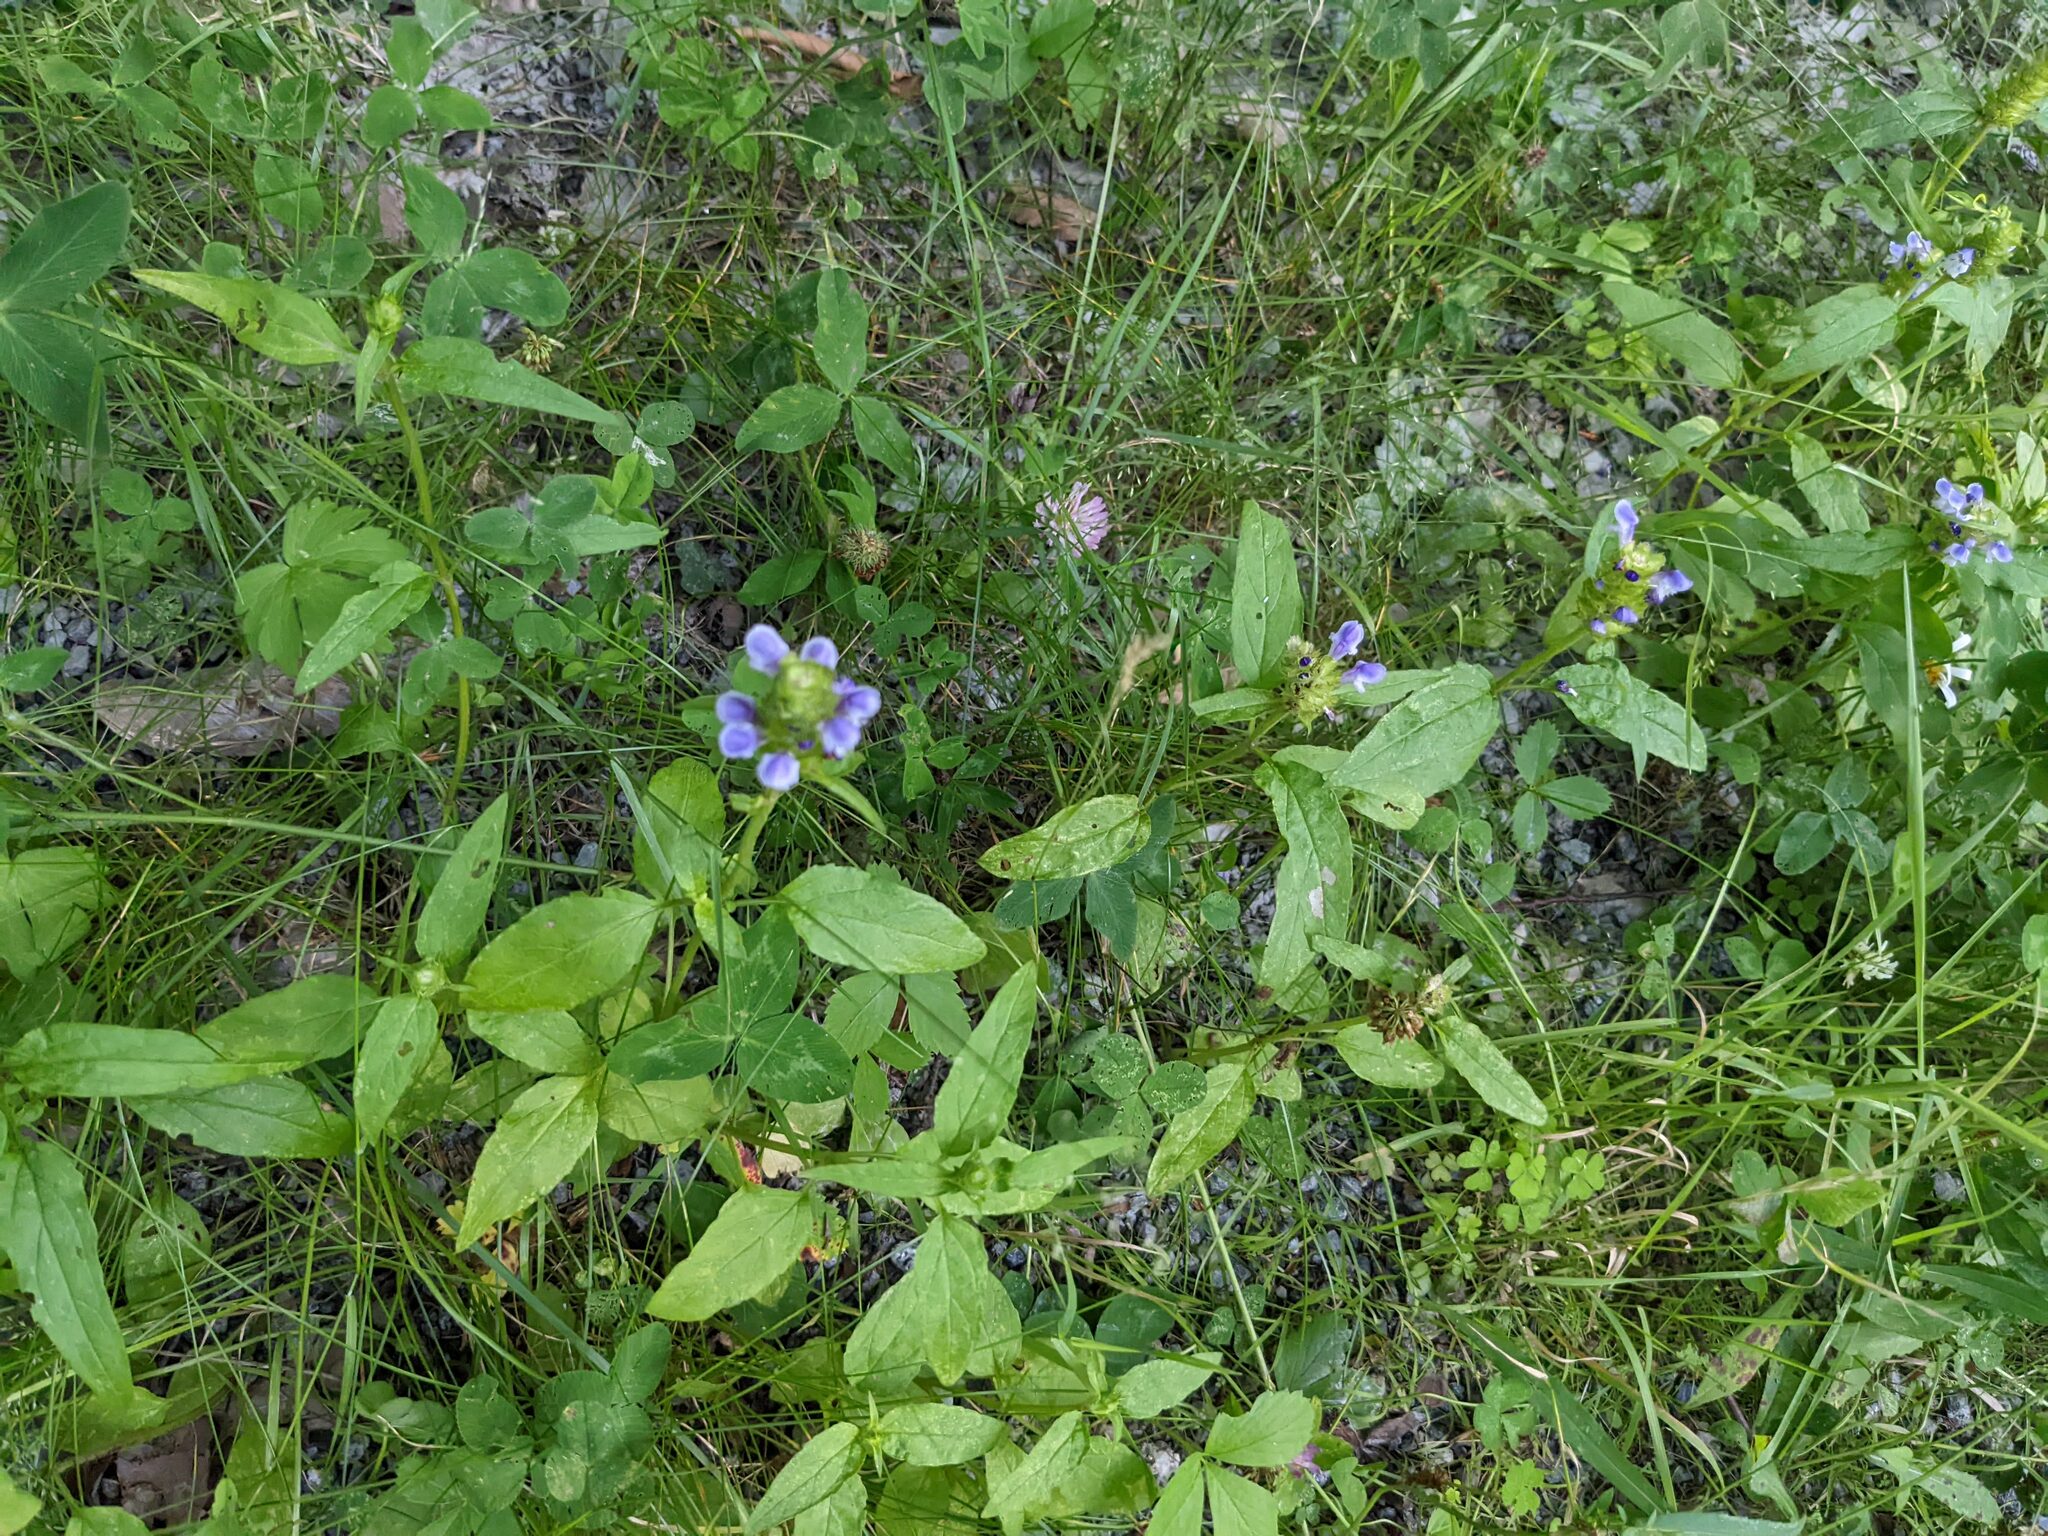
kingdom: Plantae
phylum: Tracheophyta
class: Magnoliopsida
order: Lamiales
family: Lamiaceae
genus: Prunella
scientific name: Prunella vulgaris
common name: Heal-all
